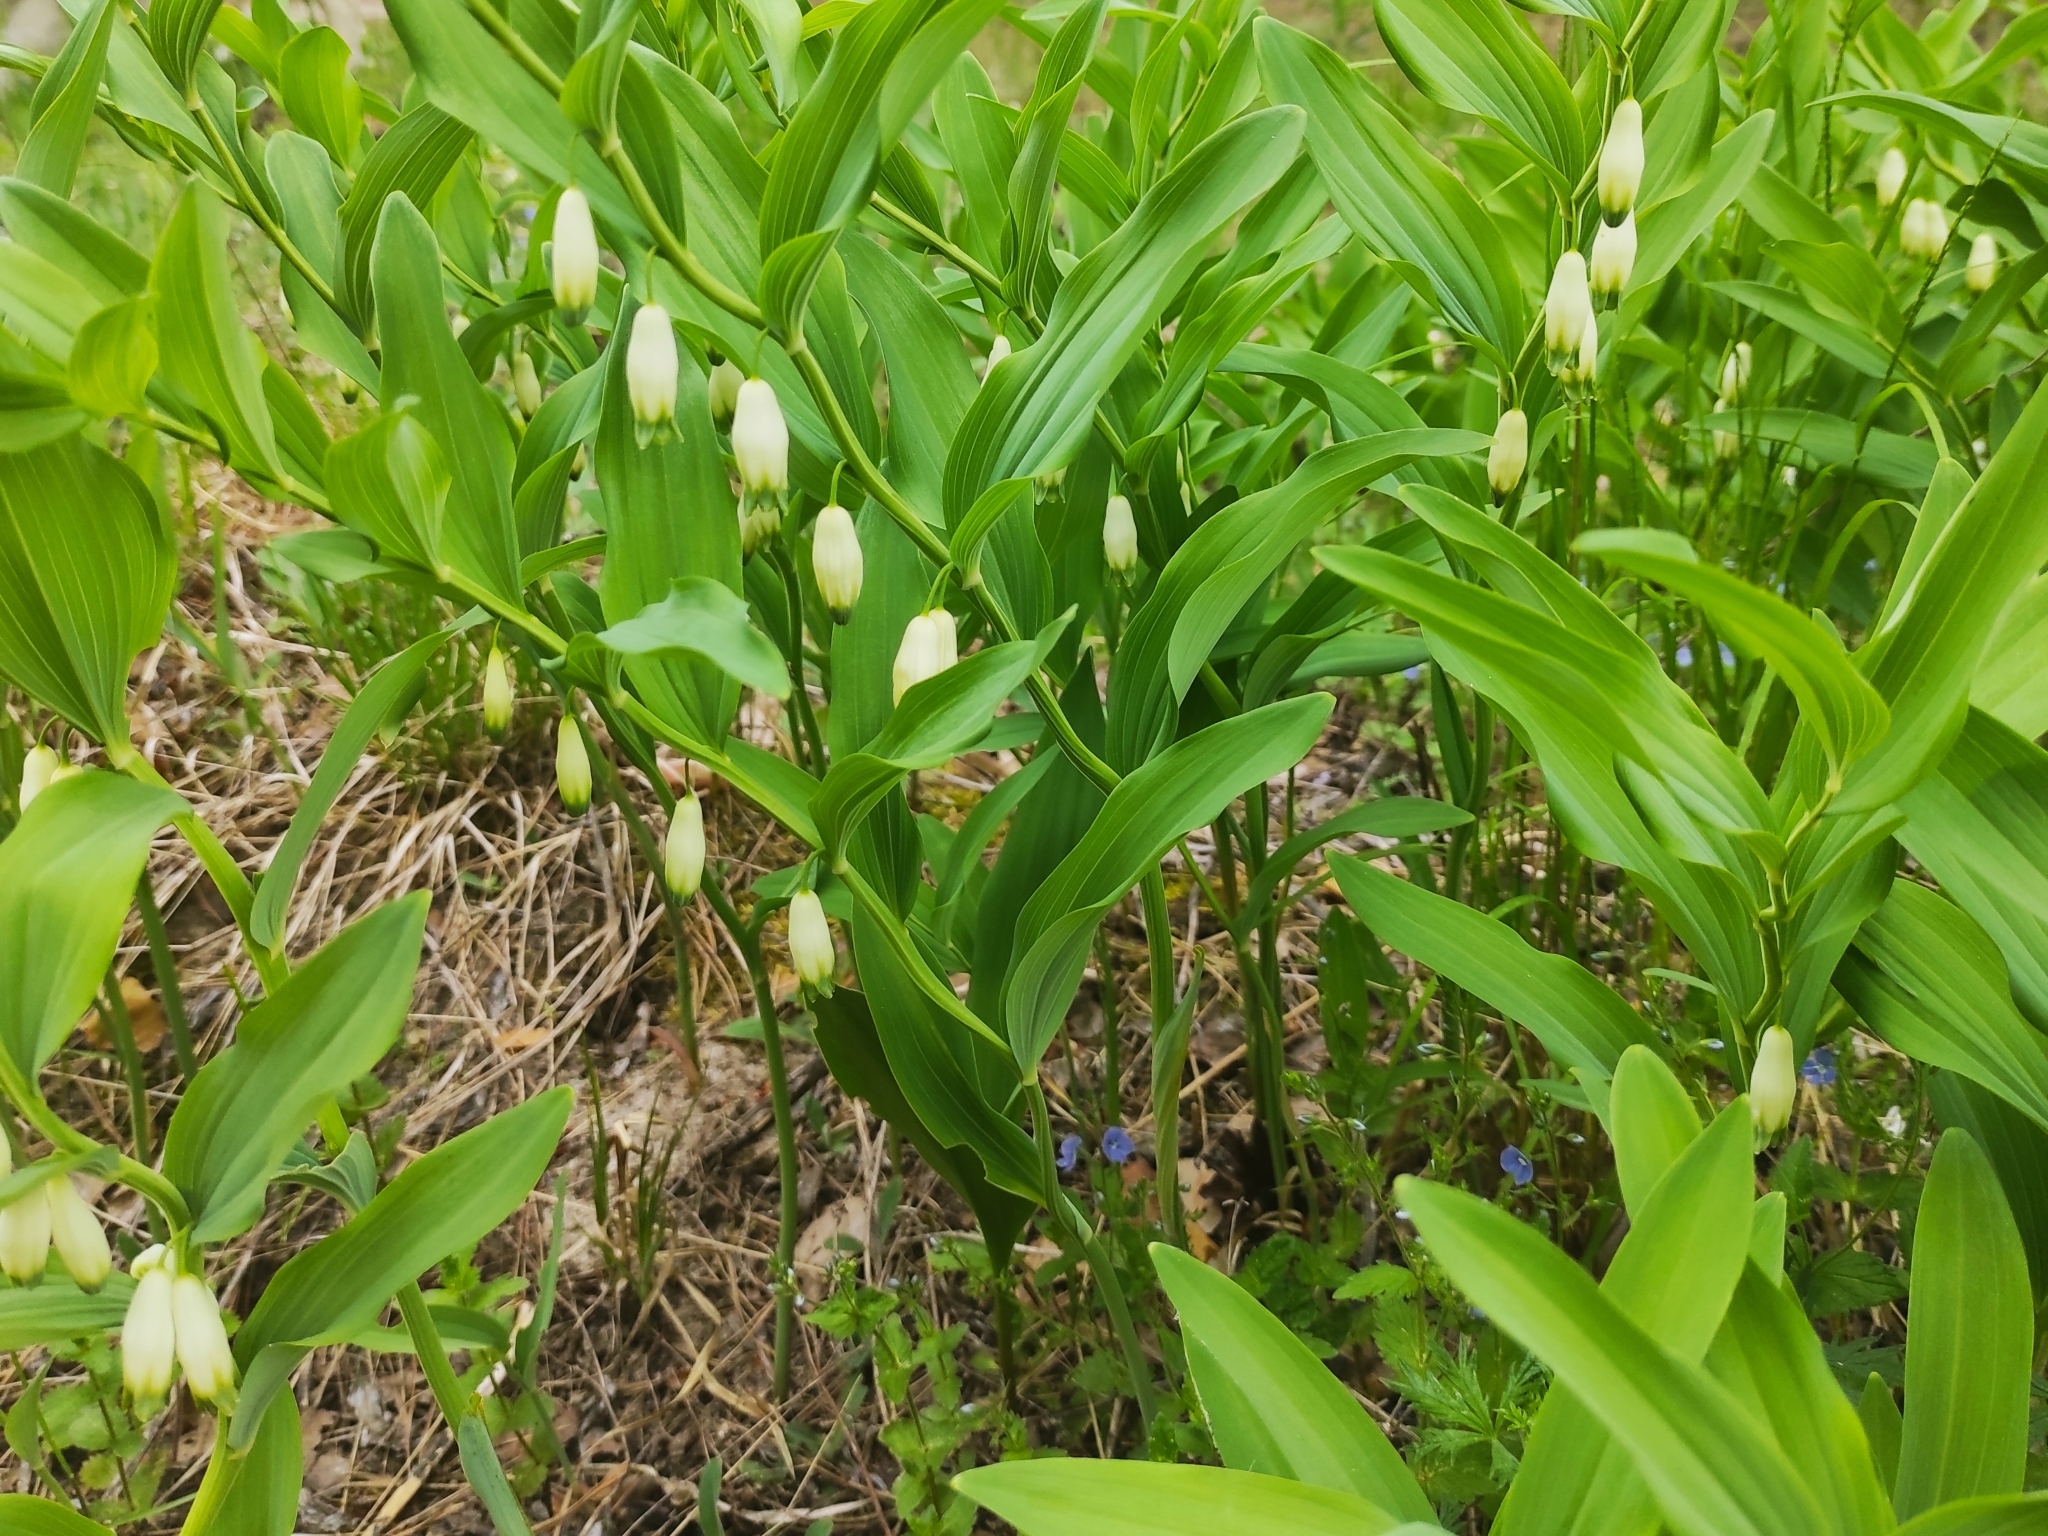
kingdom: Plantae
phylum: Tracheophyta
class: Liliopsida
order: Asparagales
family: Asparagaceae
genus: Polygonatum
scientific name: Polygonatum odoratum
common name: Angular solomon's-seal
